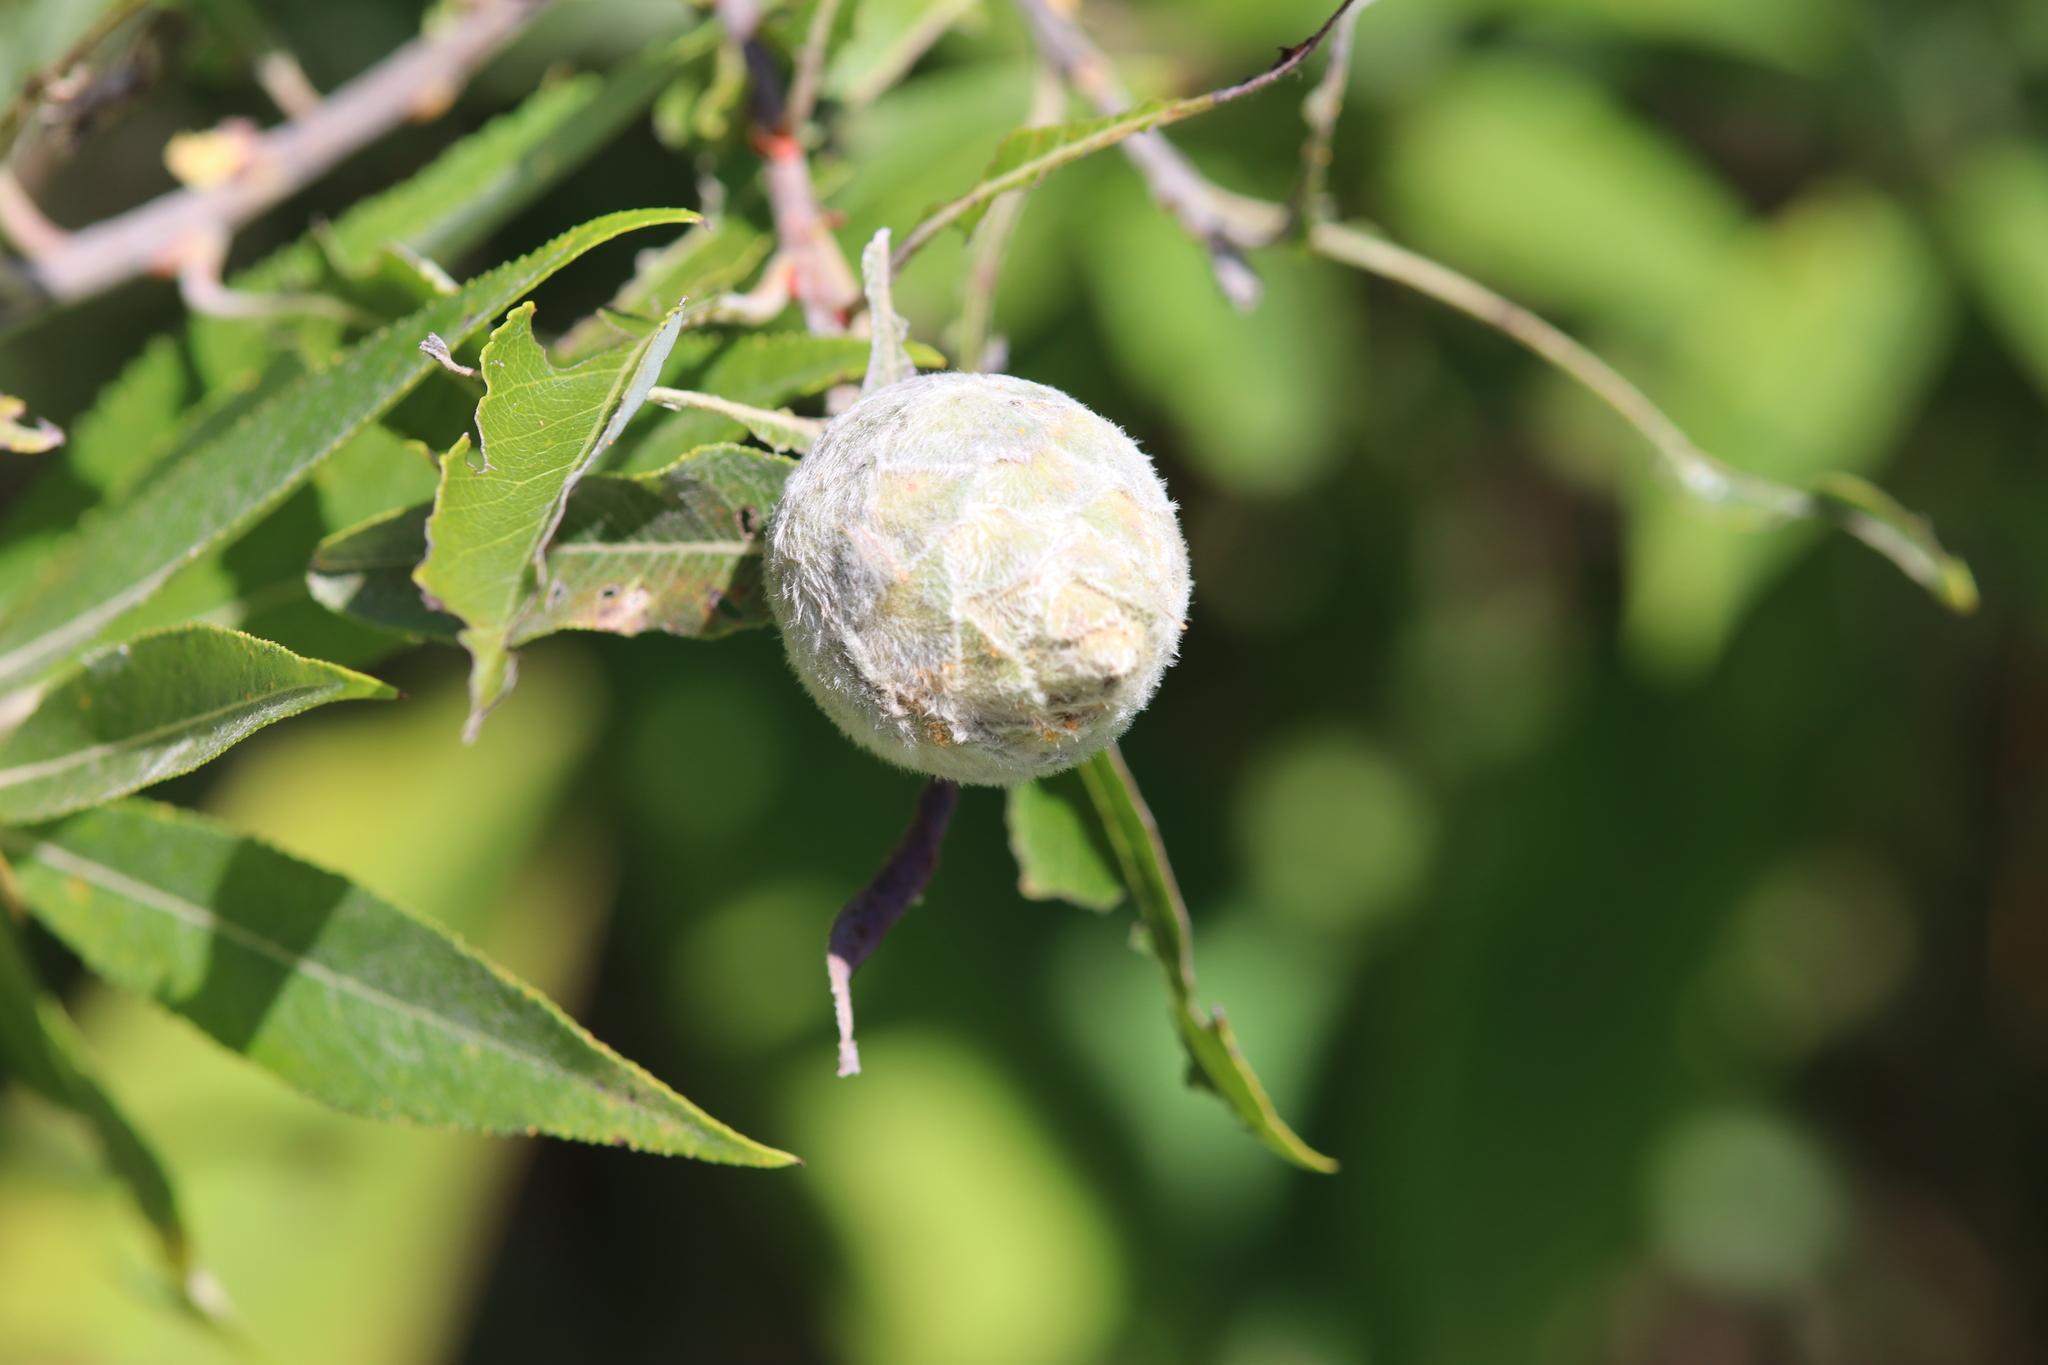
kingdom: Animalia
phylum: Arthropoda
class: Insecta
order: Diptera
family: Cecidomyiidae
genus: Rabdophaga
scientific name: Rabdophaga strobiloides
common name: Willow pinecone gall midge
